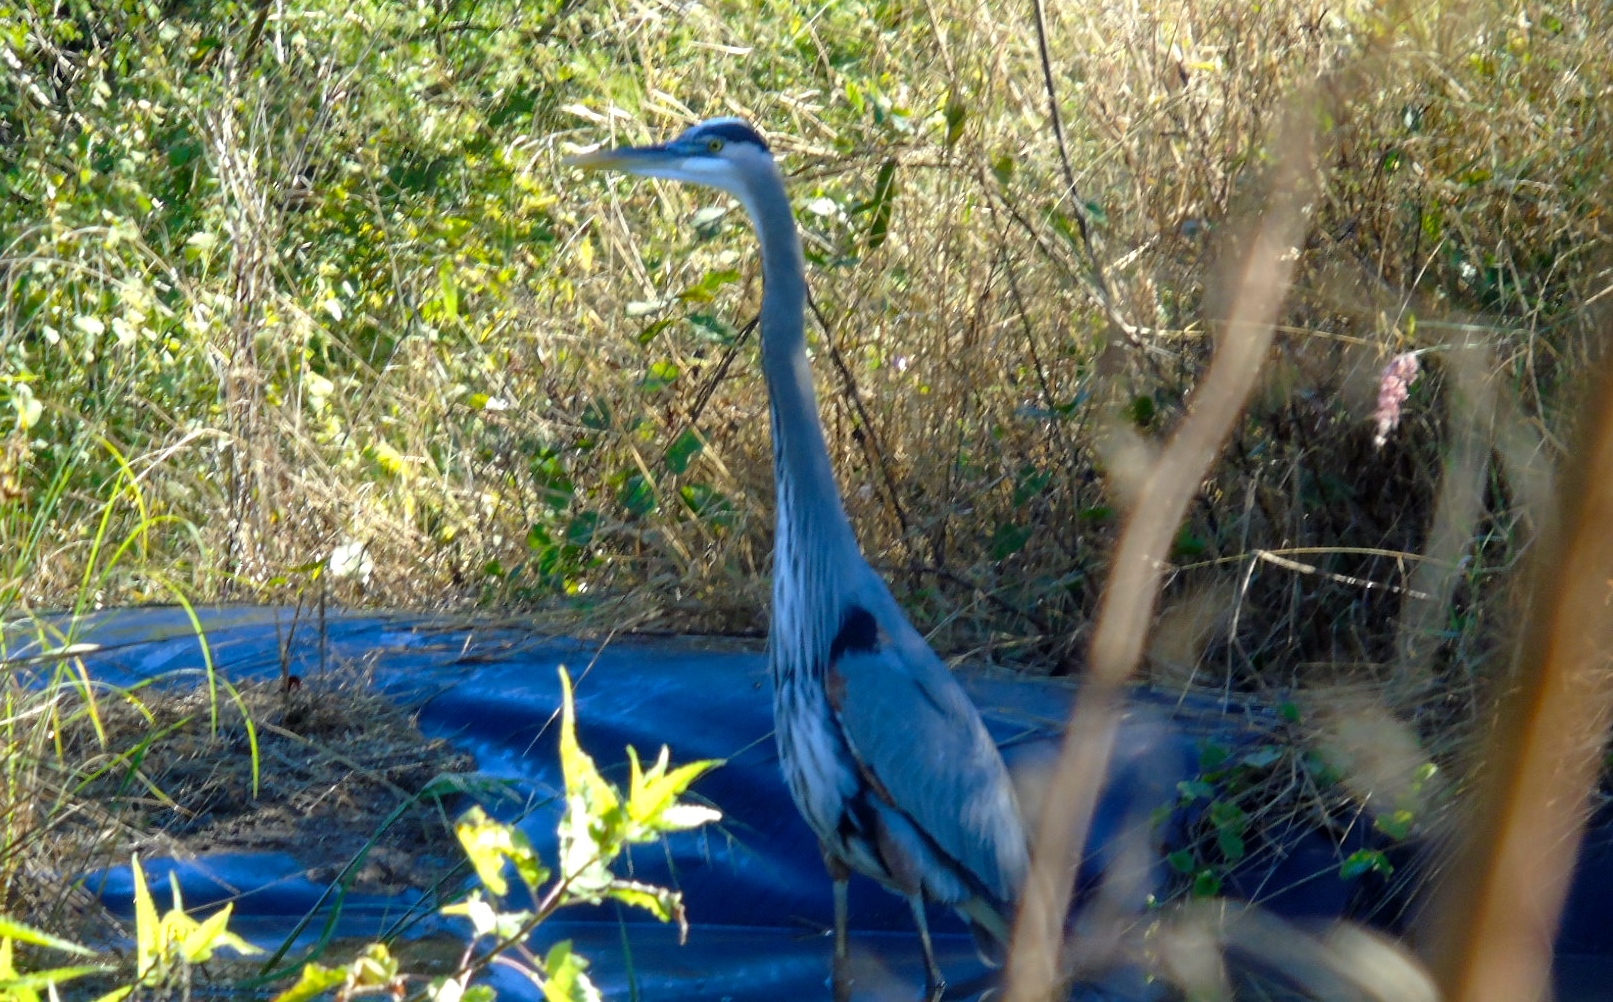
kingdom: Animalia
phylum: Chordata
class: Aves
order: Pelecaniformes
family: Ardeidae
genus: Ardea
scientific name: Ardea herodias
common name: Great blue heron
